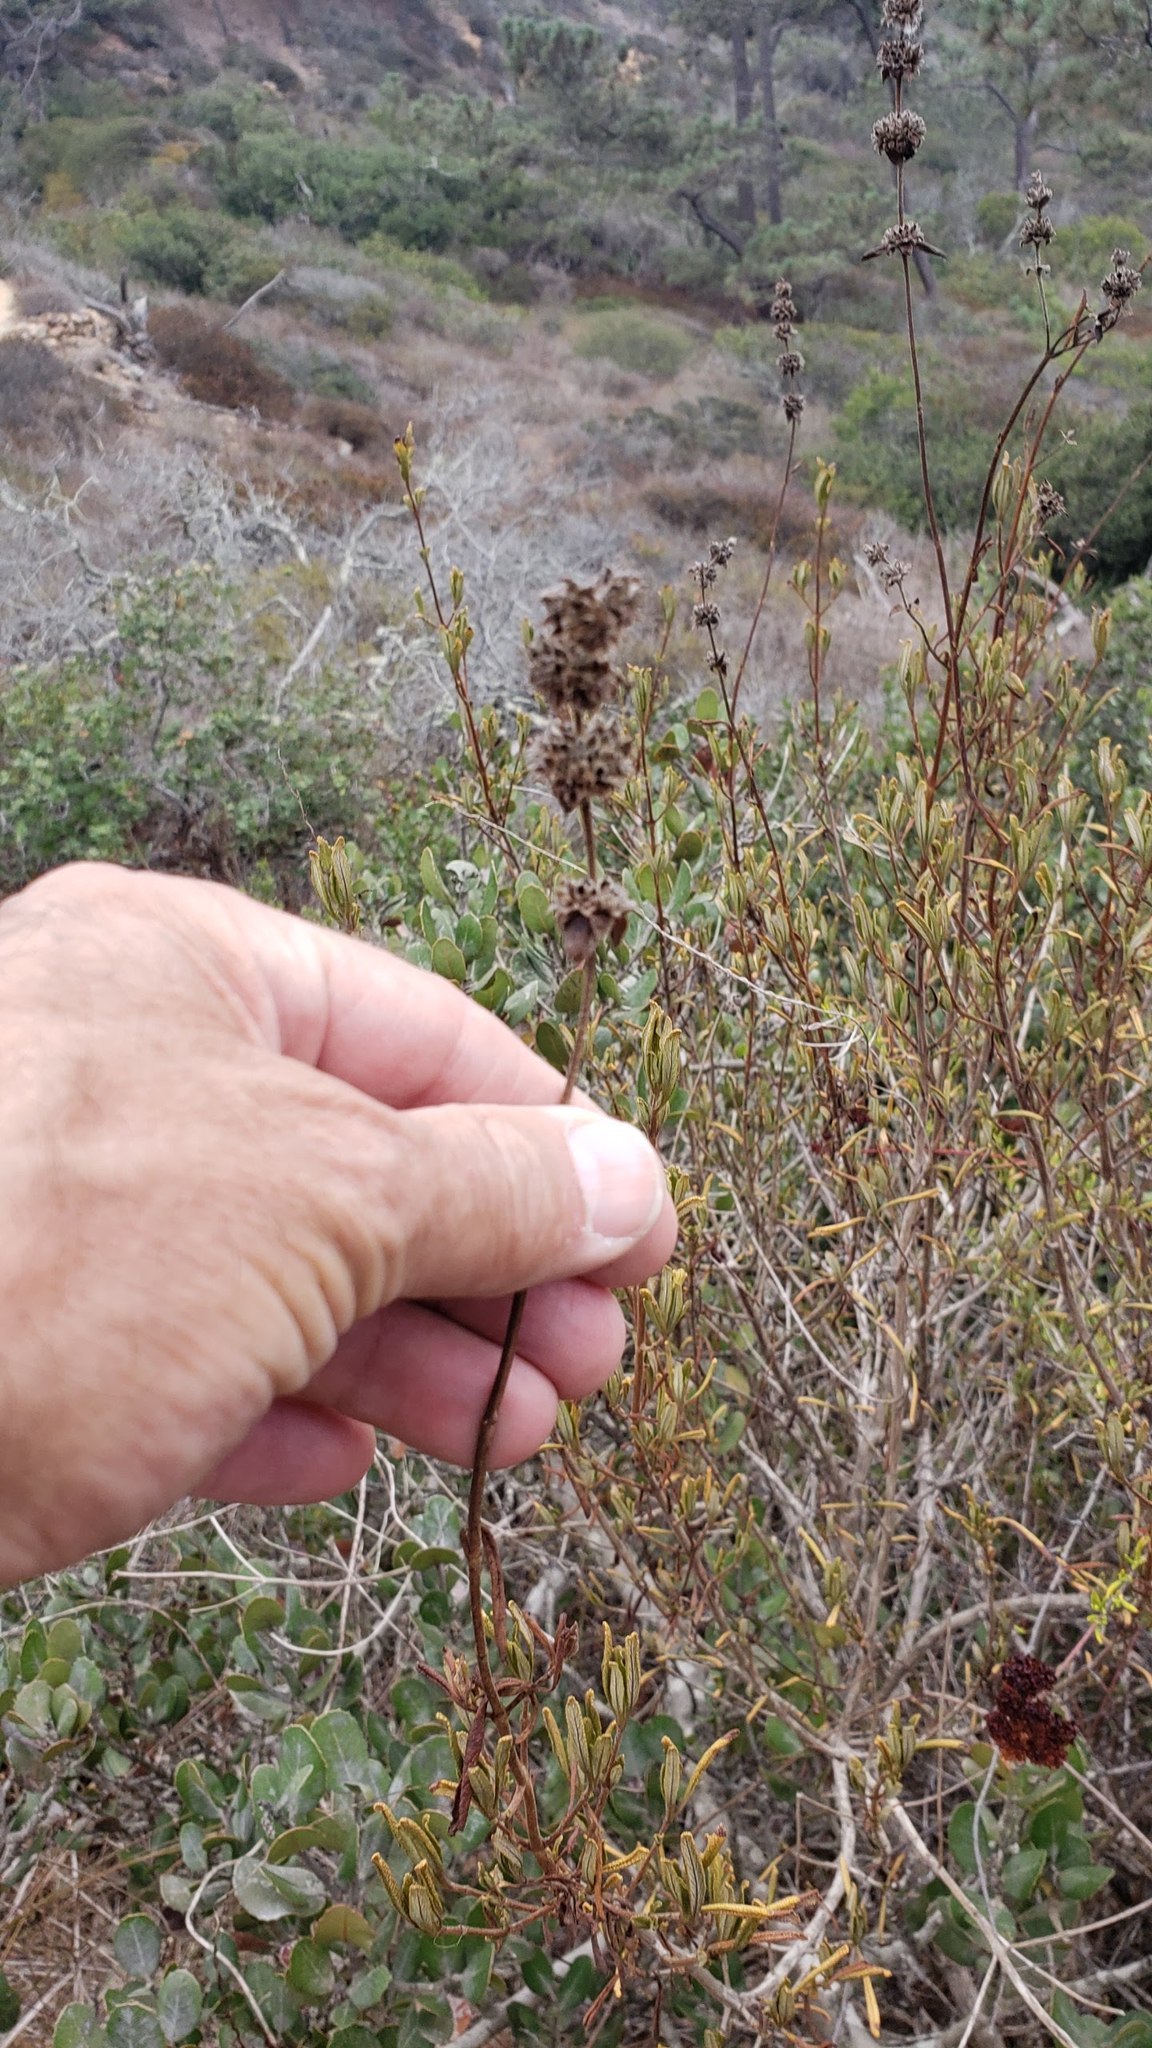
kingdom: Plantae
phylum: Tracheophyta
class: Magnoliopsida
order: Lamiales
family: Lamiaceae
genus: Salvia
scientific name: Salvia mellifera
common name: Black sage
